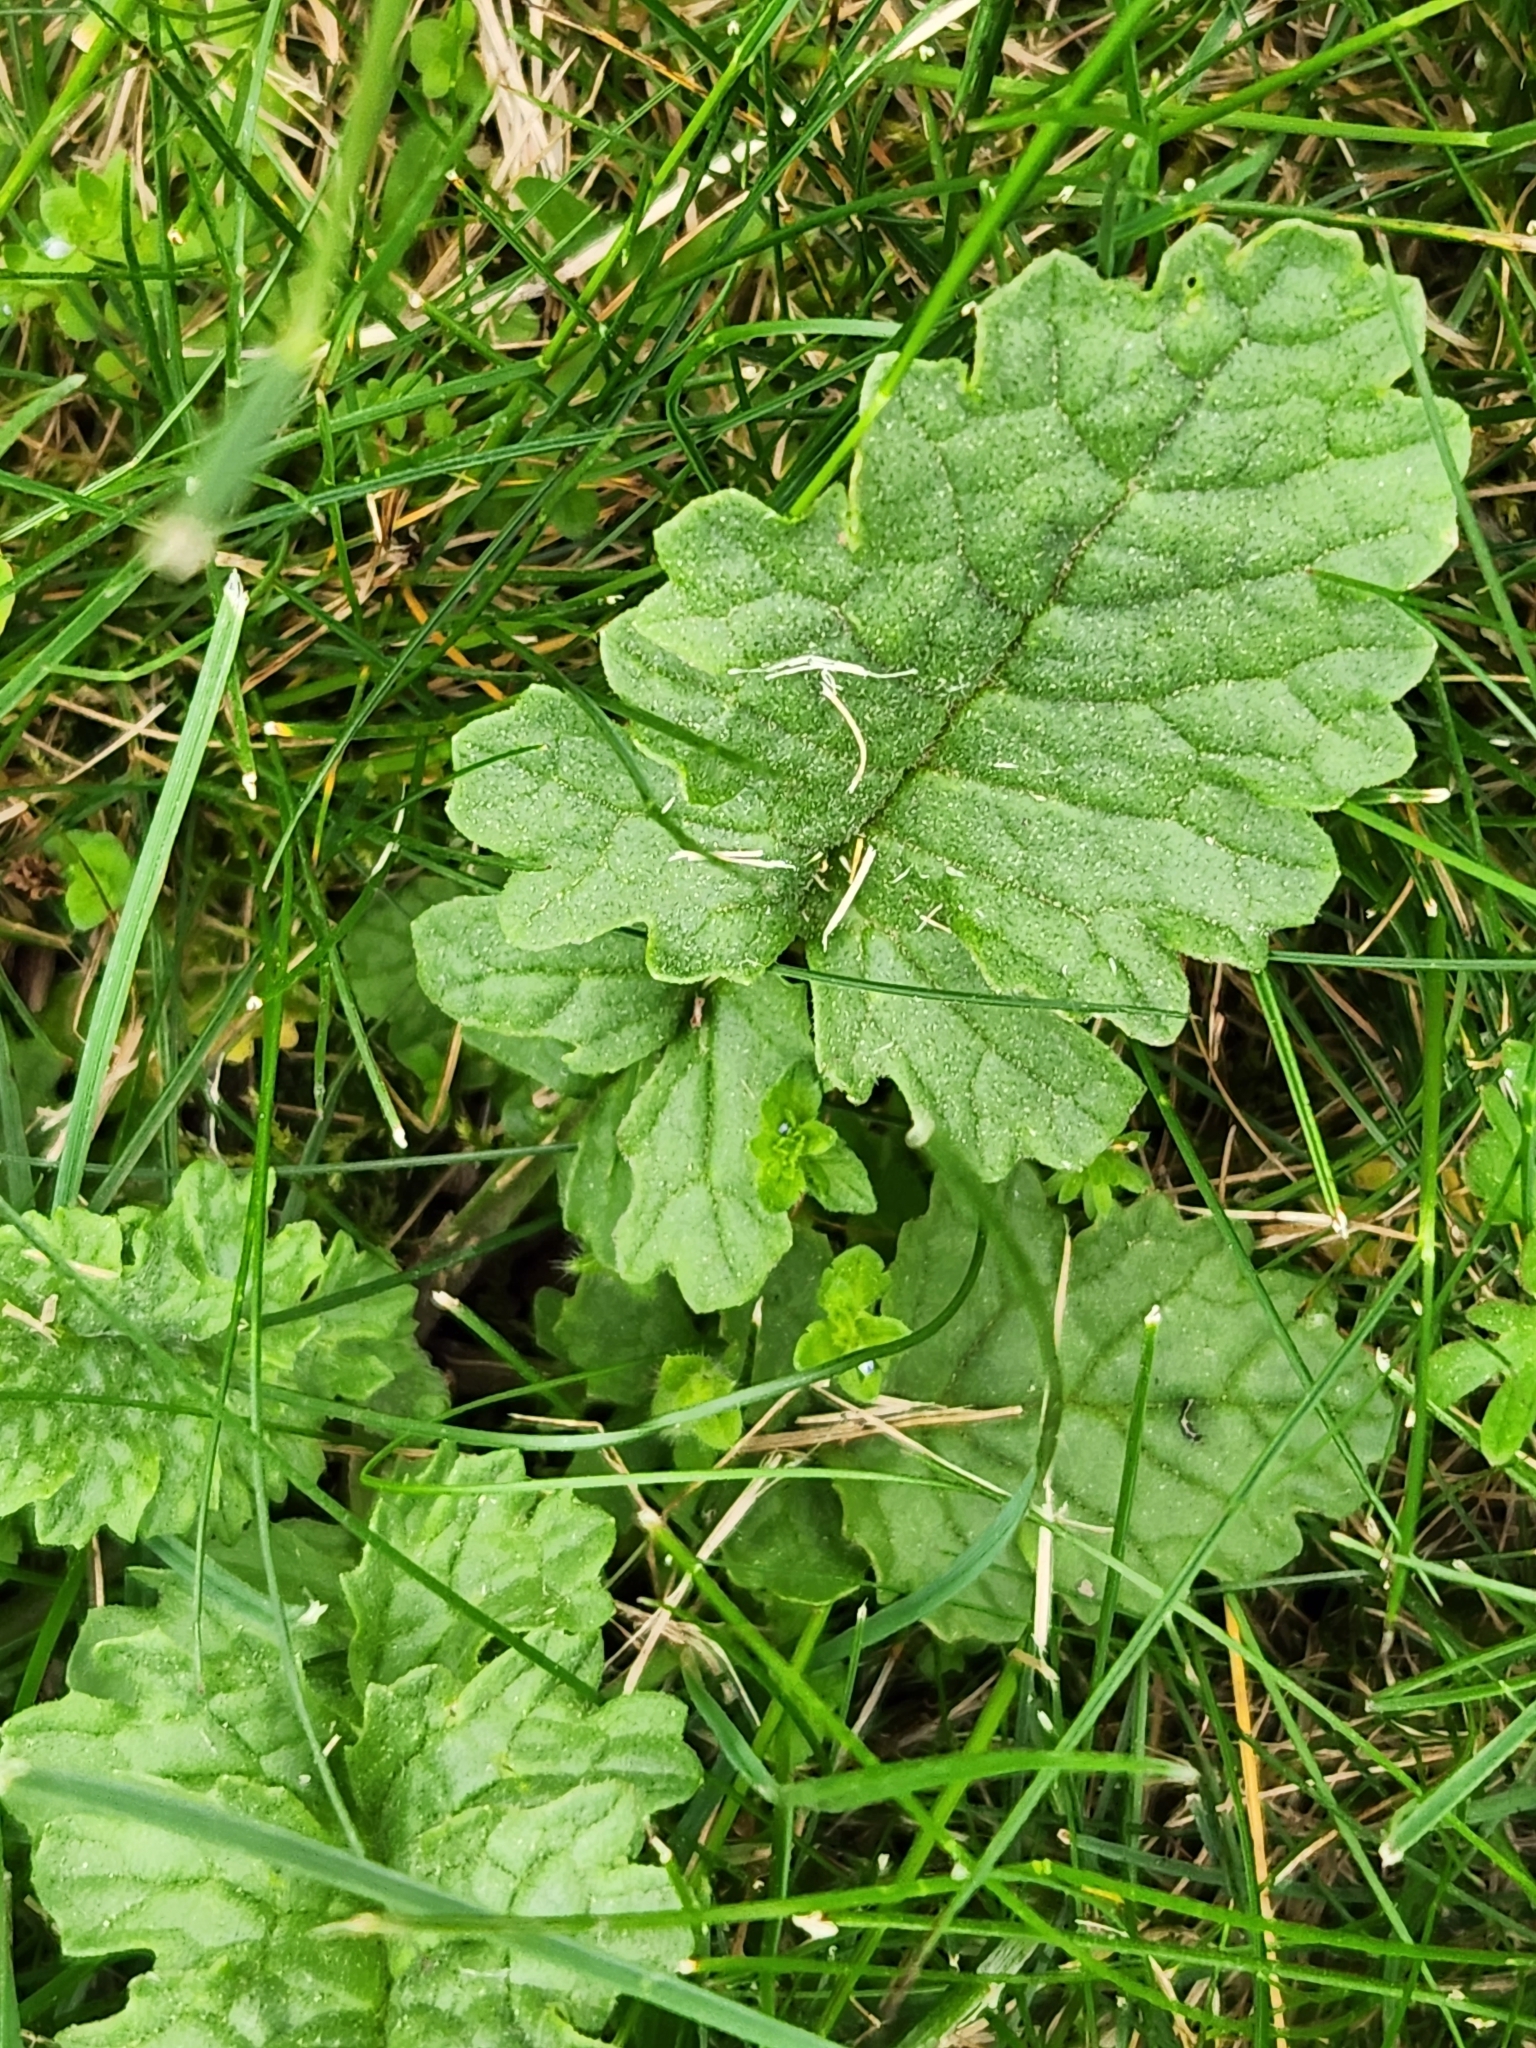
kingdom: Plantae
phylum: Tracheophyta
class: Magnoliopsida
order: Asterales
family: Asteraceae
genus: Jacobaea
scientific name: Jacobaea vulgaris
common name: Stinking willie
